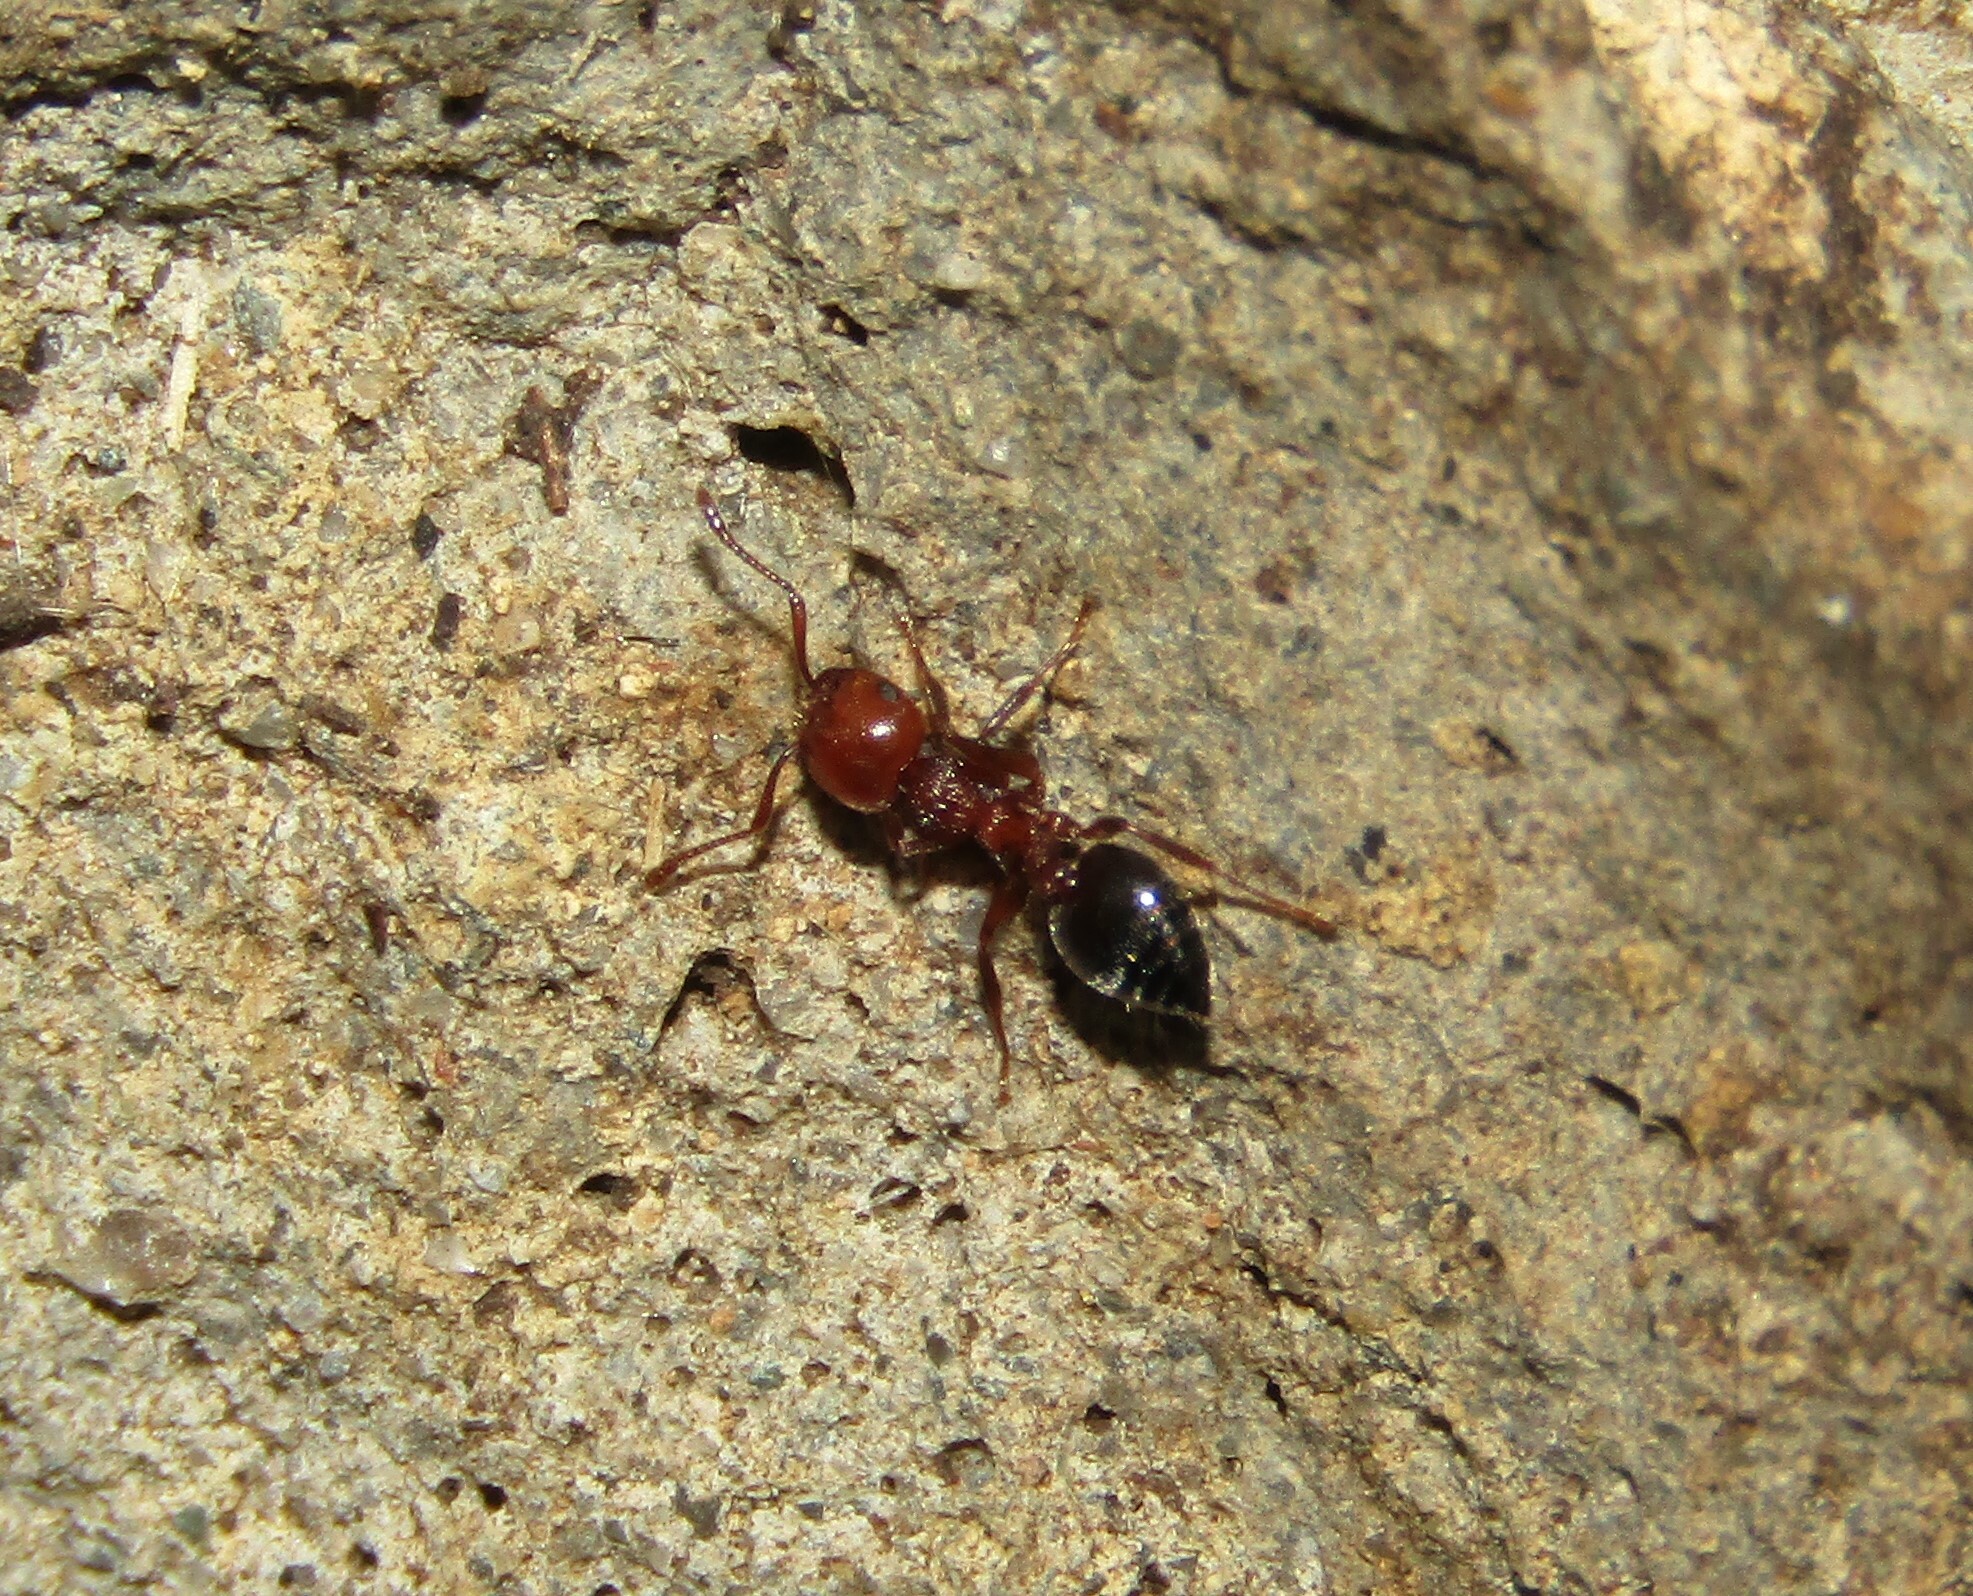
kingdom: Animalia
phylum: Arthropoda
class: Insecta
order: Hymenoptera
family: Formicidae
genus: Crematogaster
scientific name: Crematogaster schmidti
